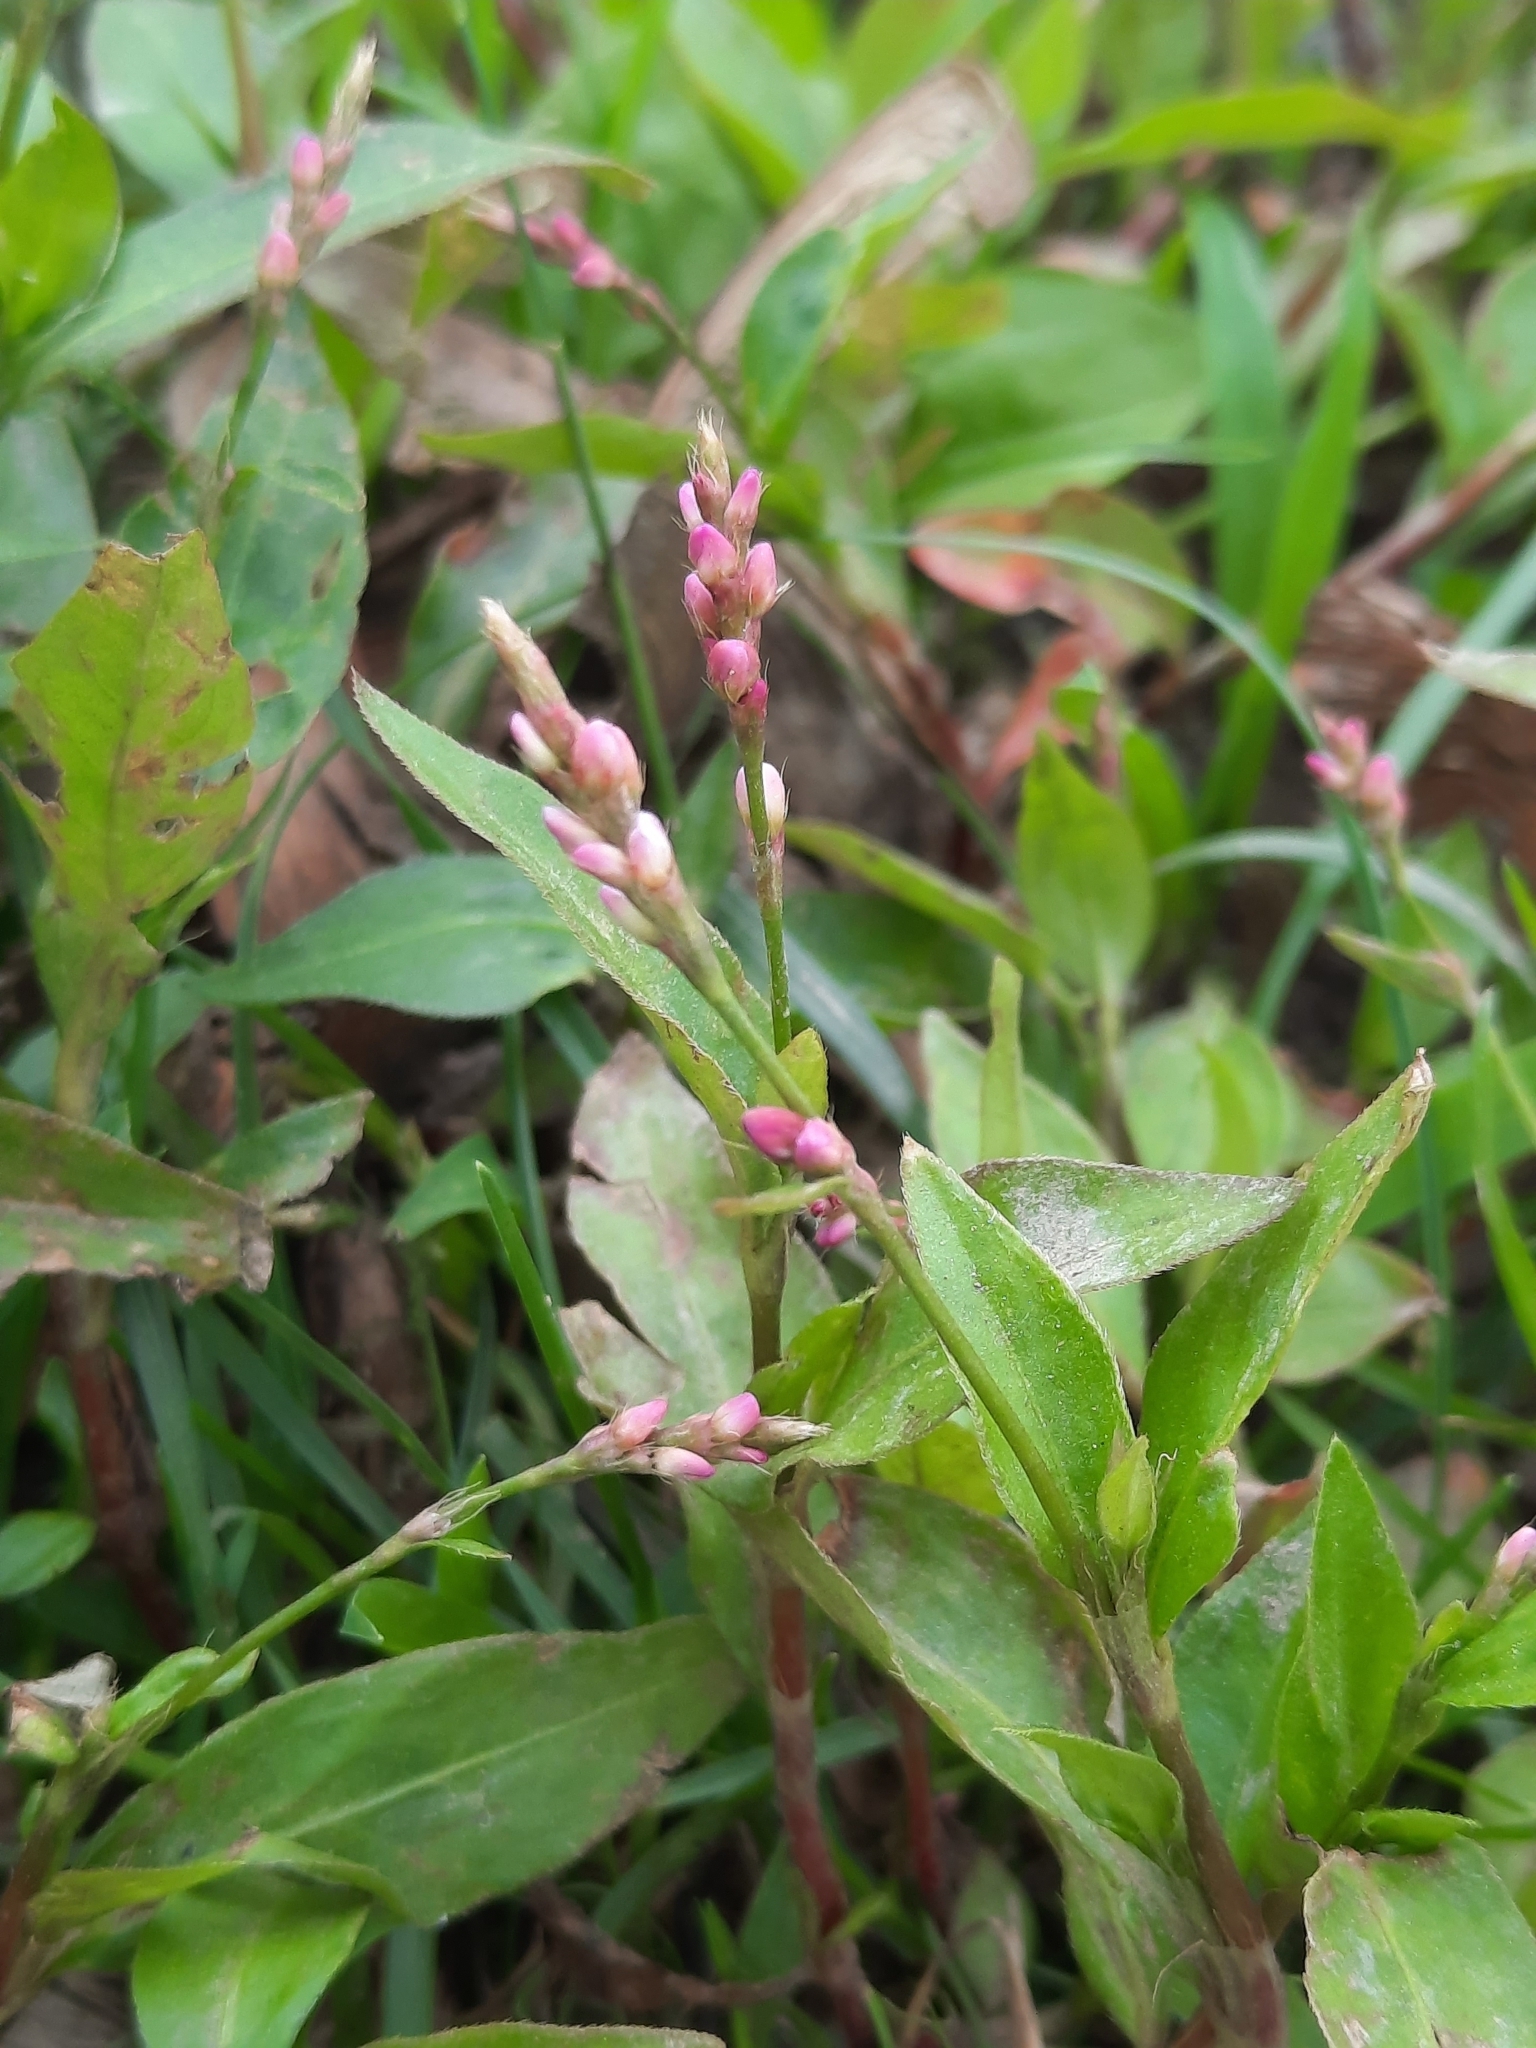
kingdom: Plantae
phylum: Tracheophyta
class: Magnoliopsida
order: Caryophyllales
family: Polygonaceae
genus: Persicaria
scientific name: Persicaria longiseta
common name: Bristly lady's-thumb
